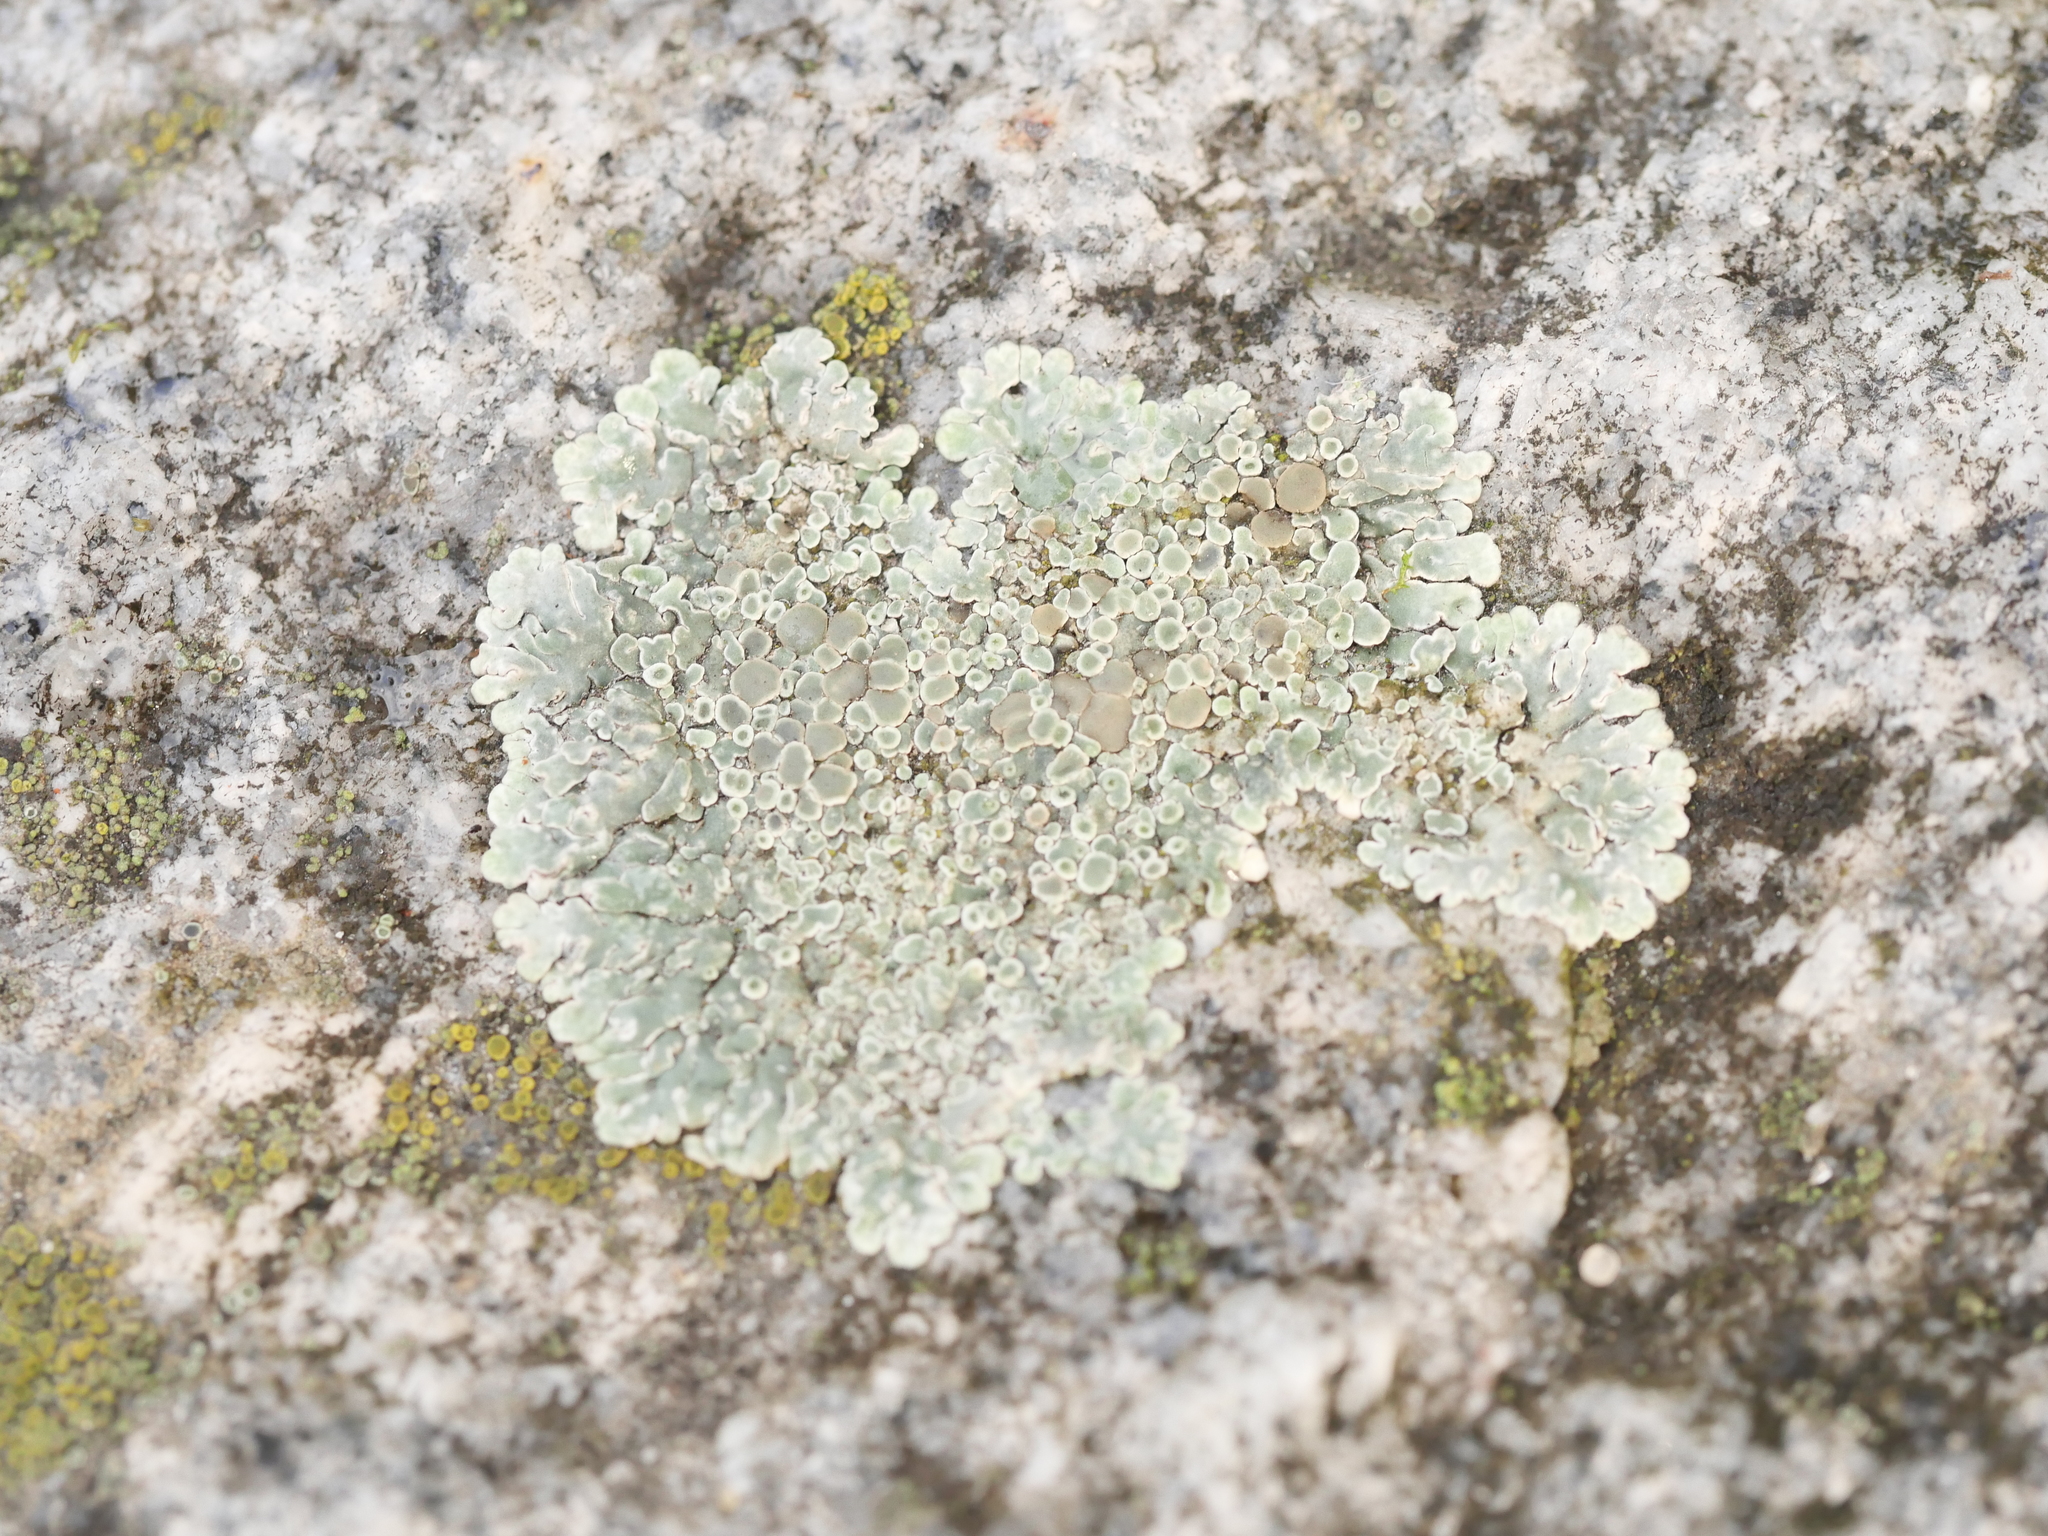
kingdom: Fungi
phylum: Ascomycota
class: Lecanoromycetes
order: Lecanorales
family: Lecanoraceae
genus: Protoparmeliopsis
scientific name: Protoparmeliopsis muralis
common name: Stonewall rim lichen
